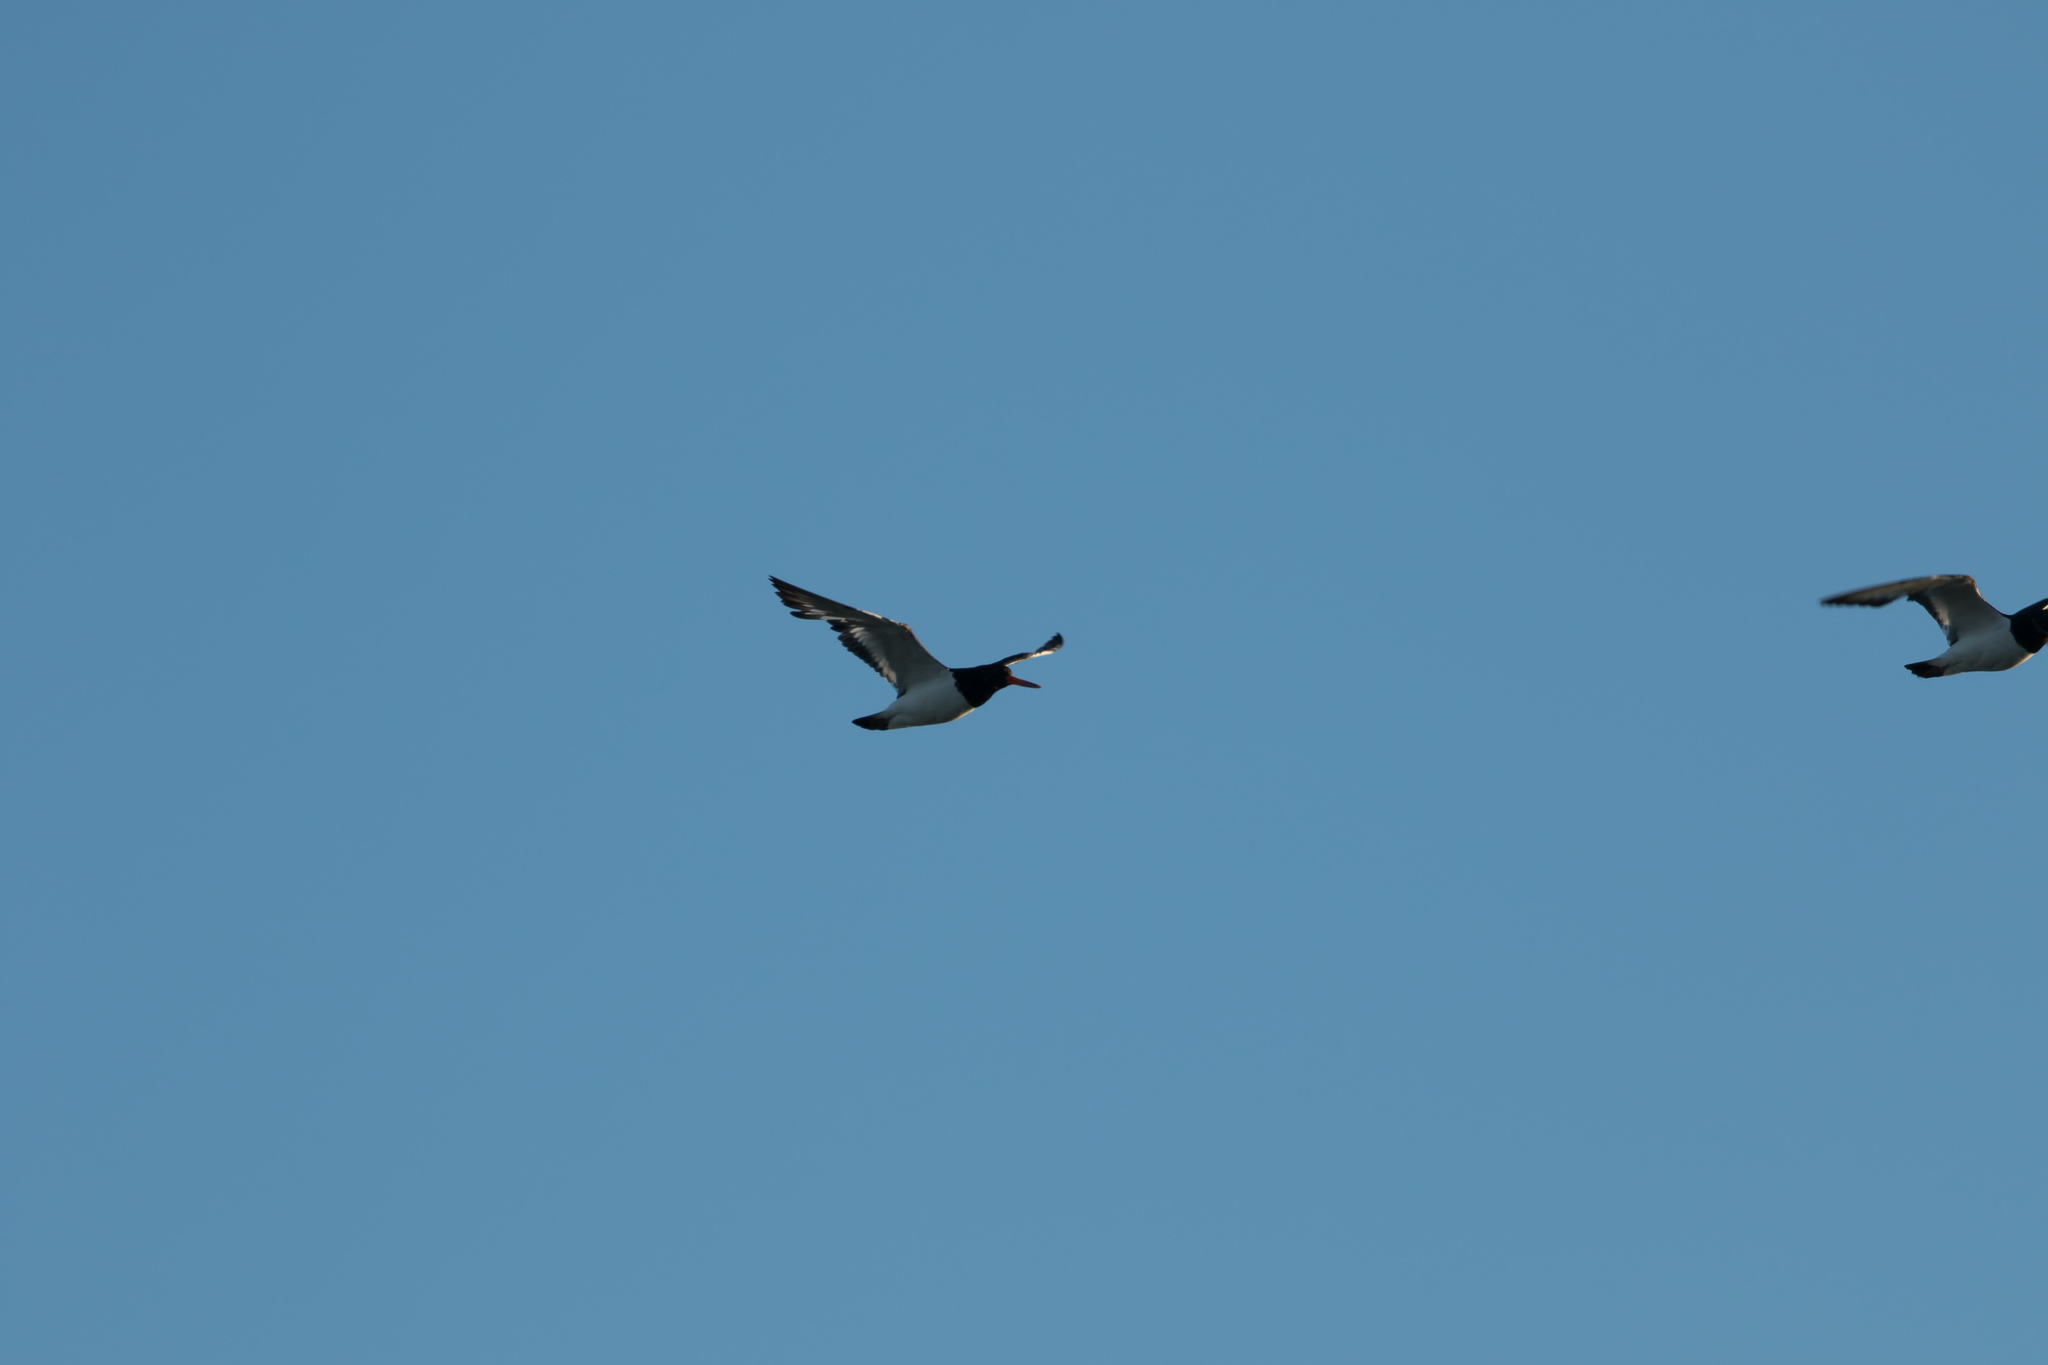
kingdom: Animalia
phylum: Chordata
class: Aves
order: Charadriiformes
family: Haematopodidae
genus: Haematopus
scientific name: Haematopus ostralegus
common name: Eurasian oystercatcher
